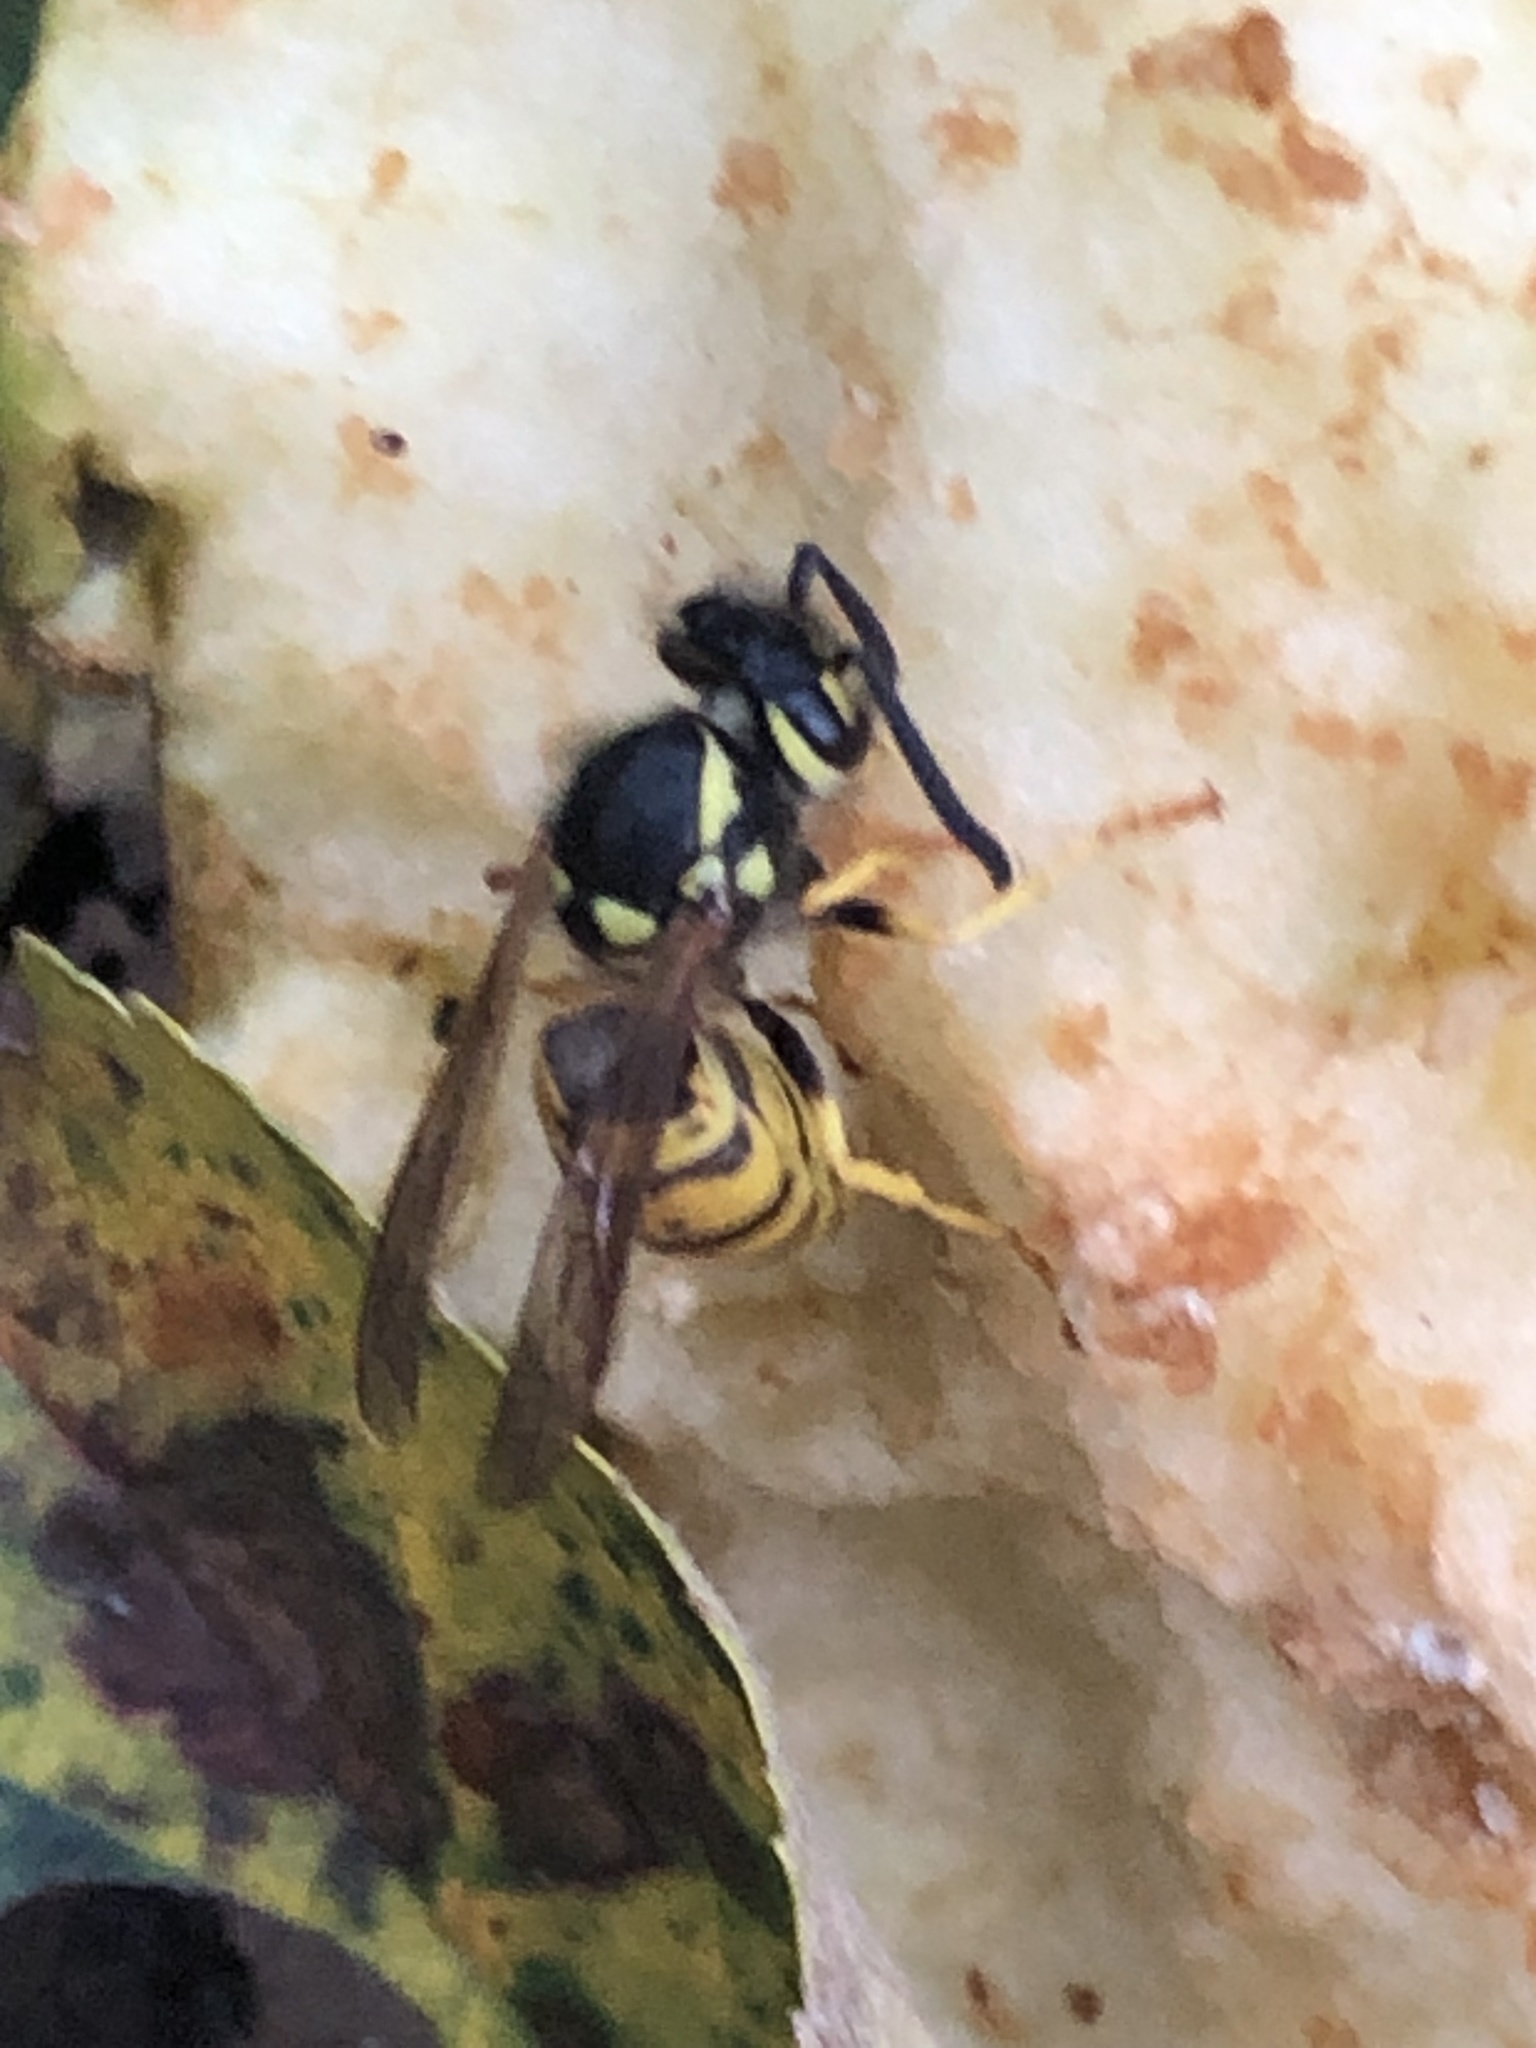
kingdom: Animalia
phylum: Arthropoda
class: Insecta
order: Hymenoptera
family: Vespidae
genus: Vespula
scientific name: Vespula germanica
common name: German wasp
